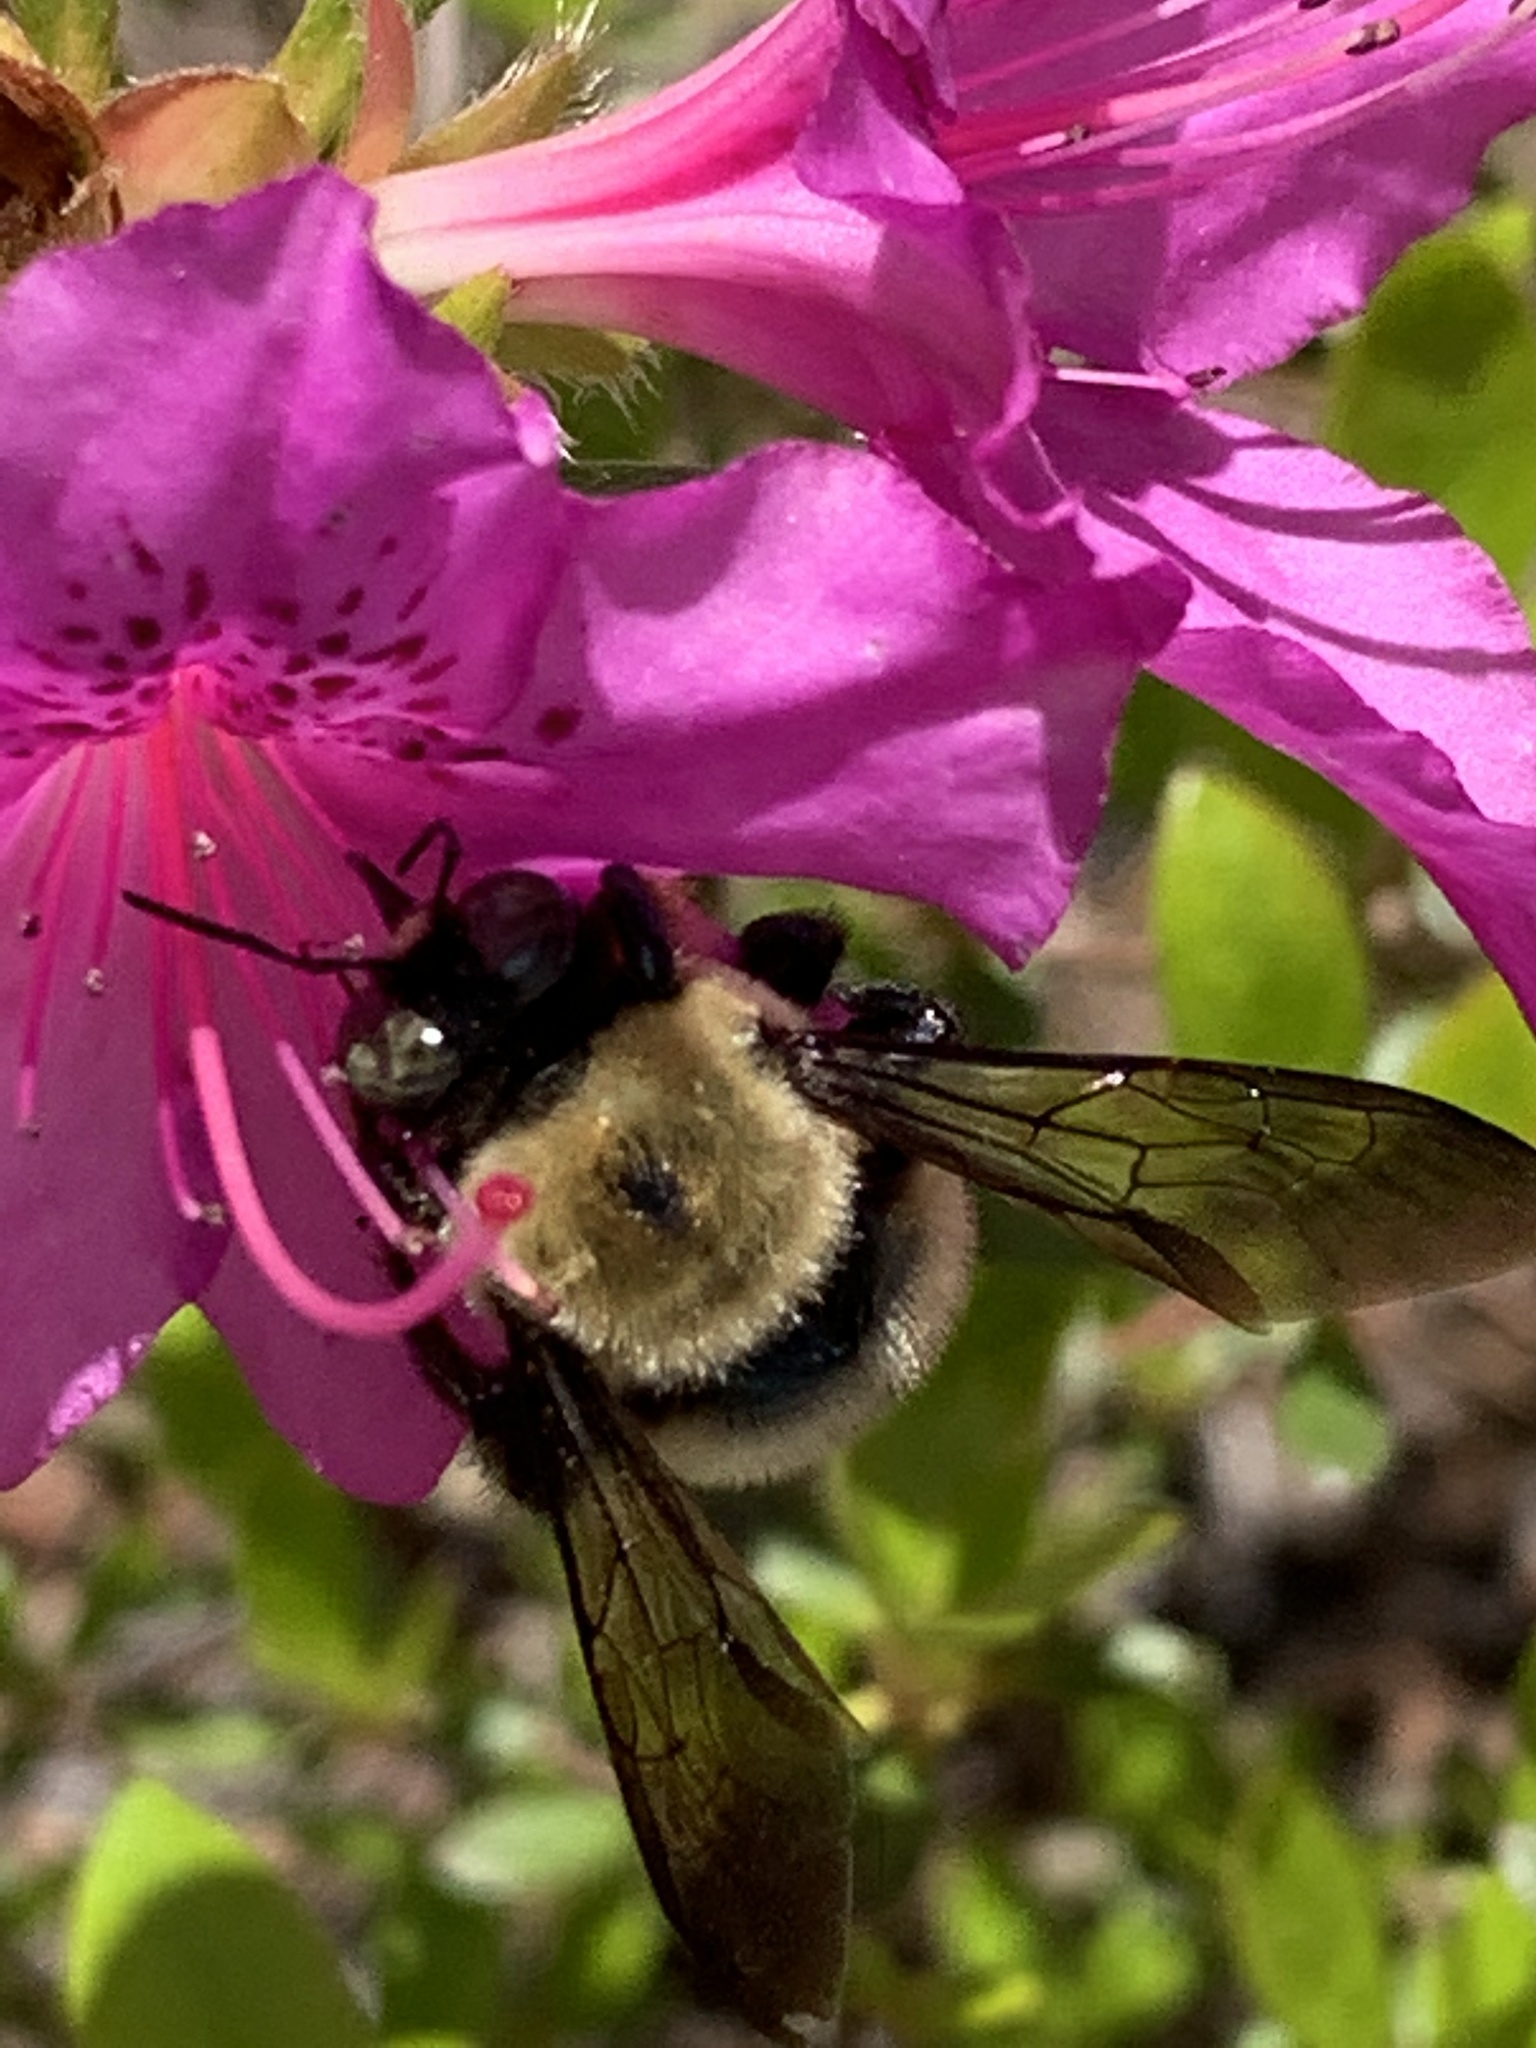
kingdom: Animalia
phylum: Arthropoda
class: Insecta
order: Hymenoptera
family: Apidae
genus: Xylocopa
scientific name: Xylocopa virginica
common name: Carpenter bee
